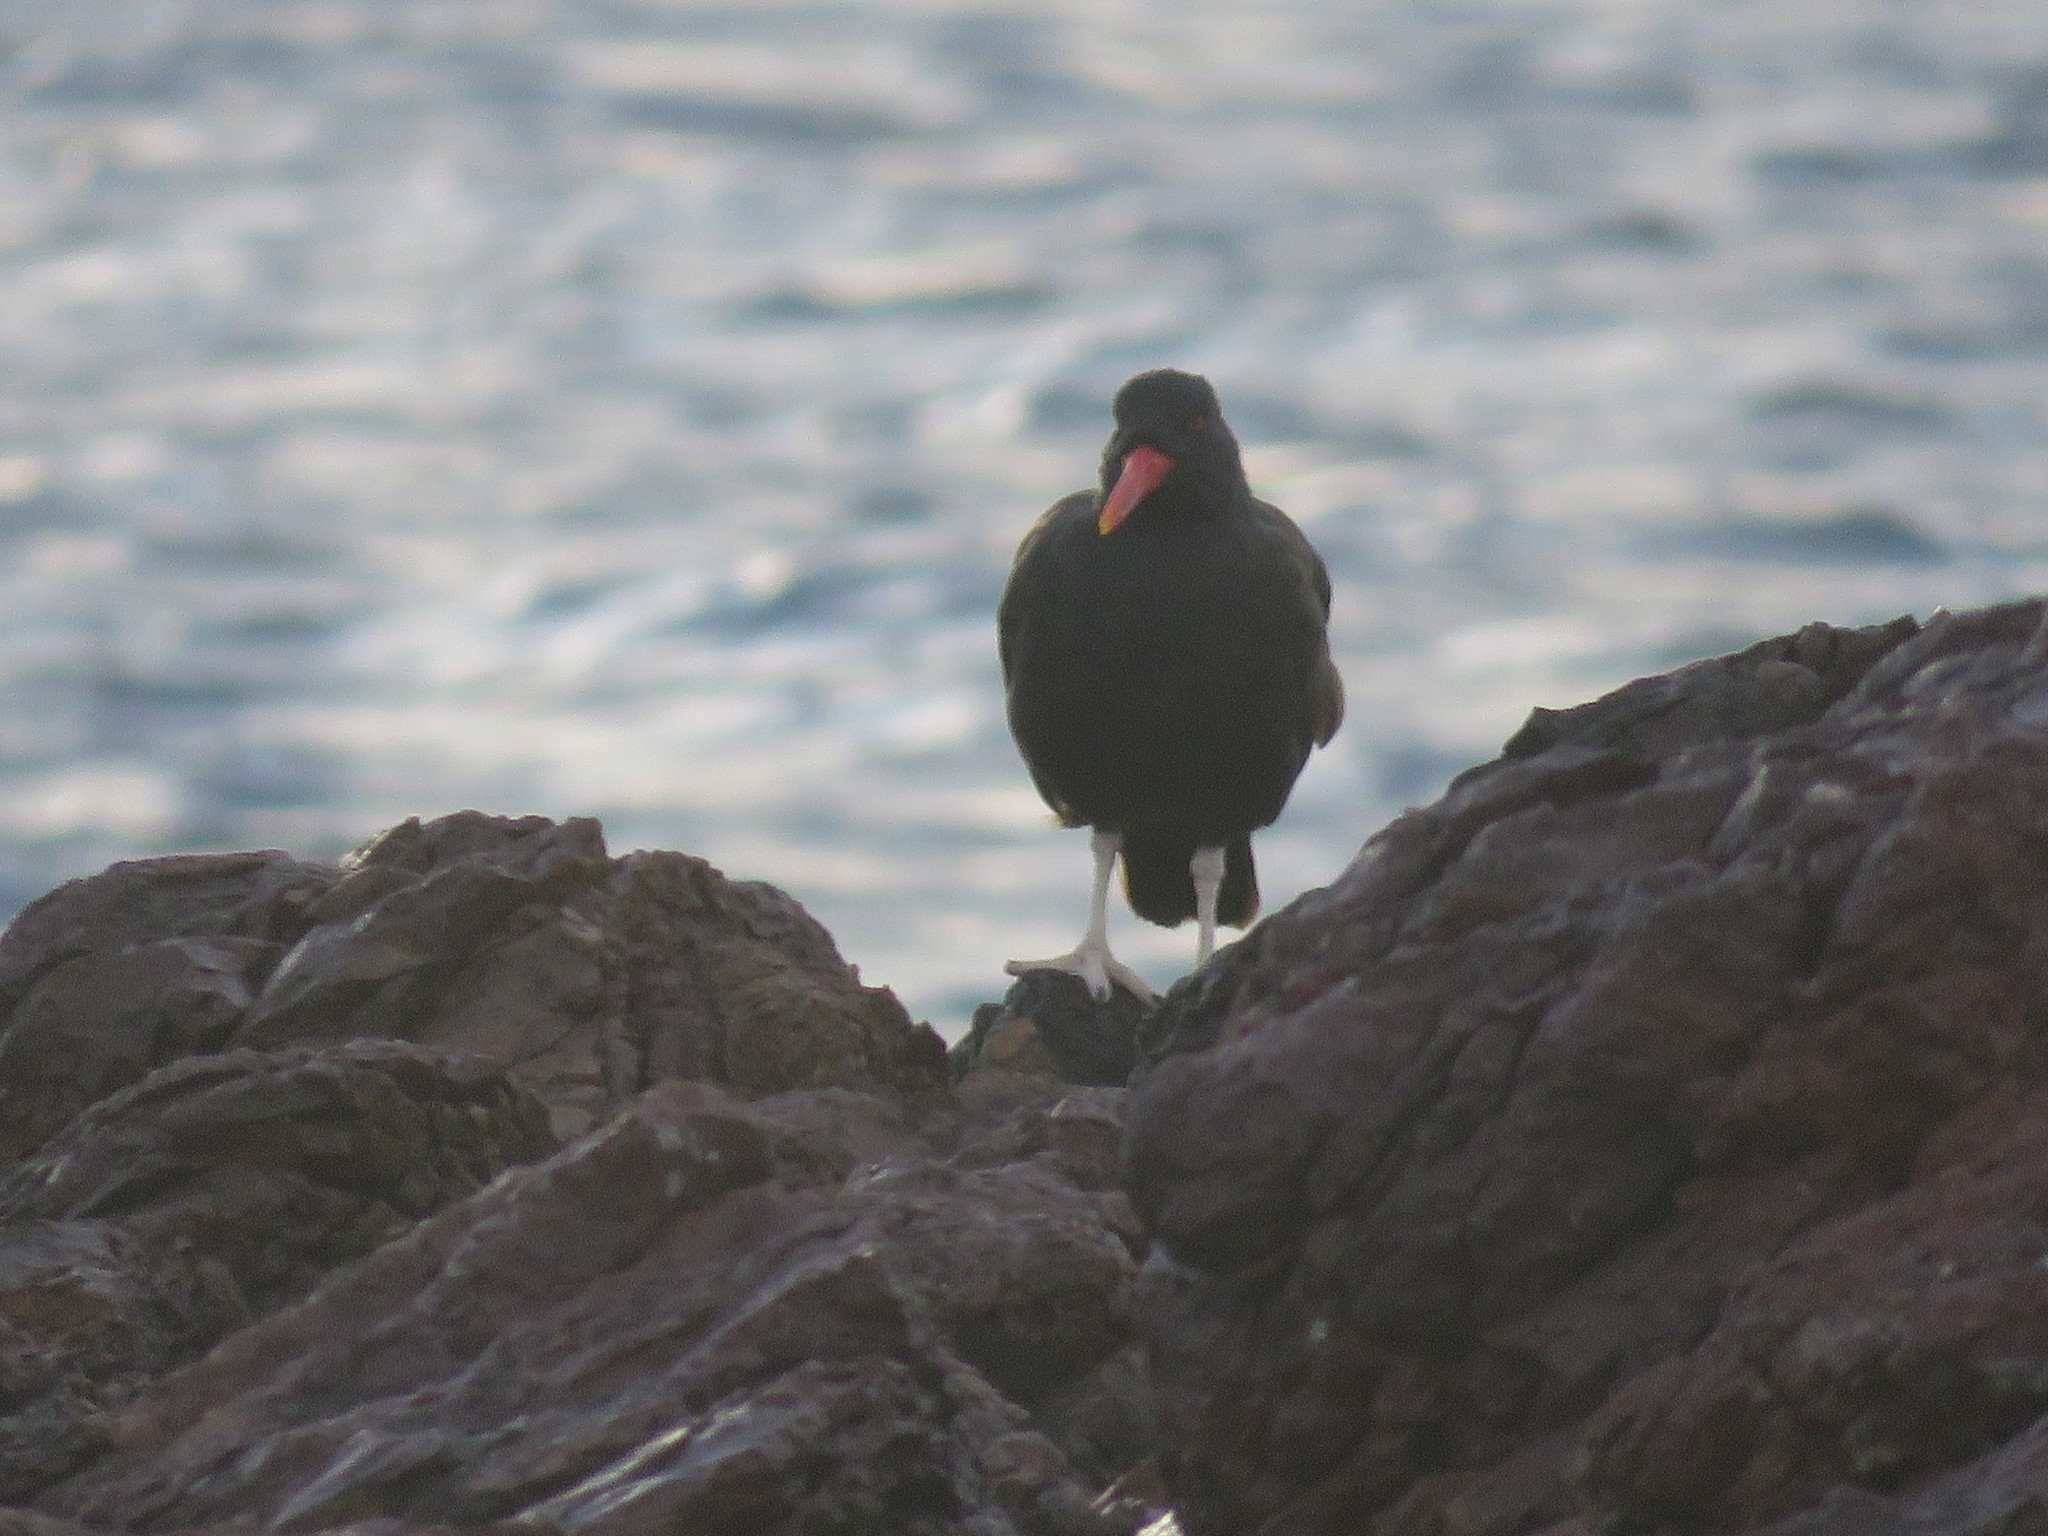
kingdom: Animalia
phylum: Chordata
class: Aves
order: Charadriiformes
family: Haematopodidae
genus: Haematopus
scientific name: Haematopus ater
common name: Blackish oystercatcher
